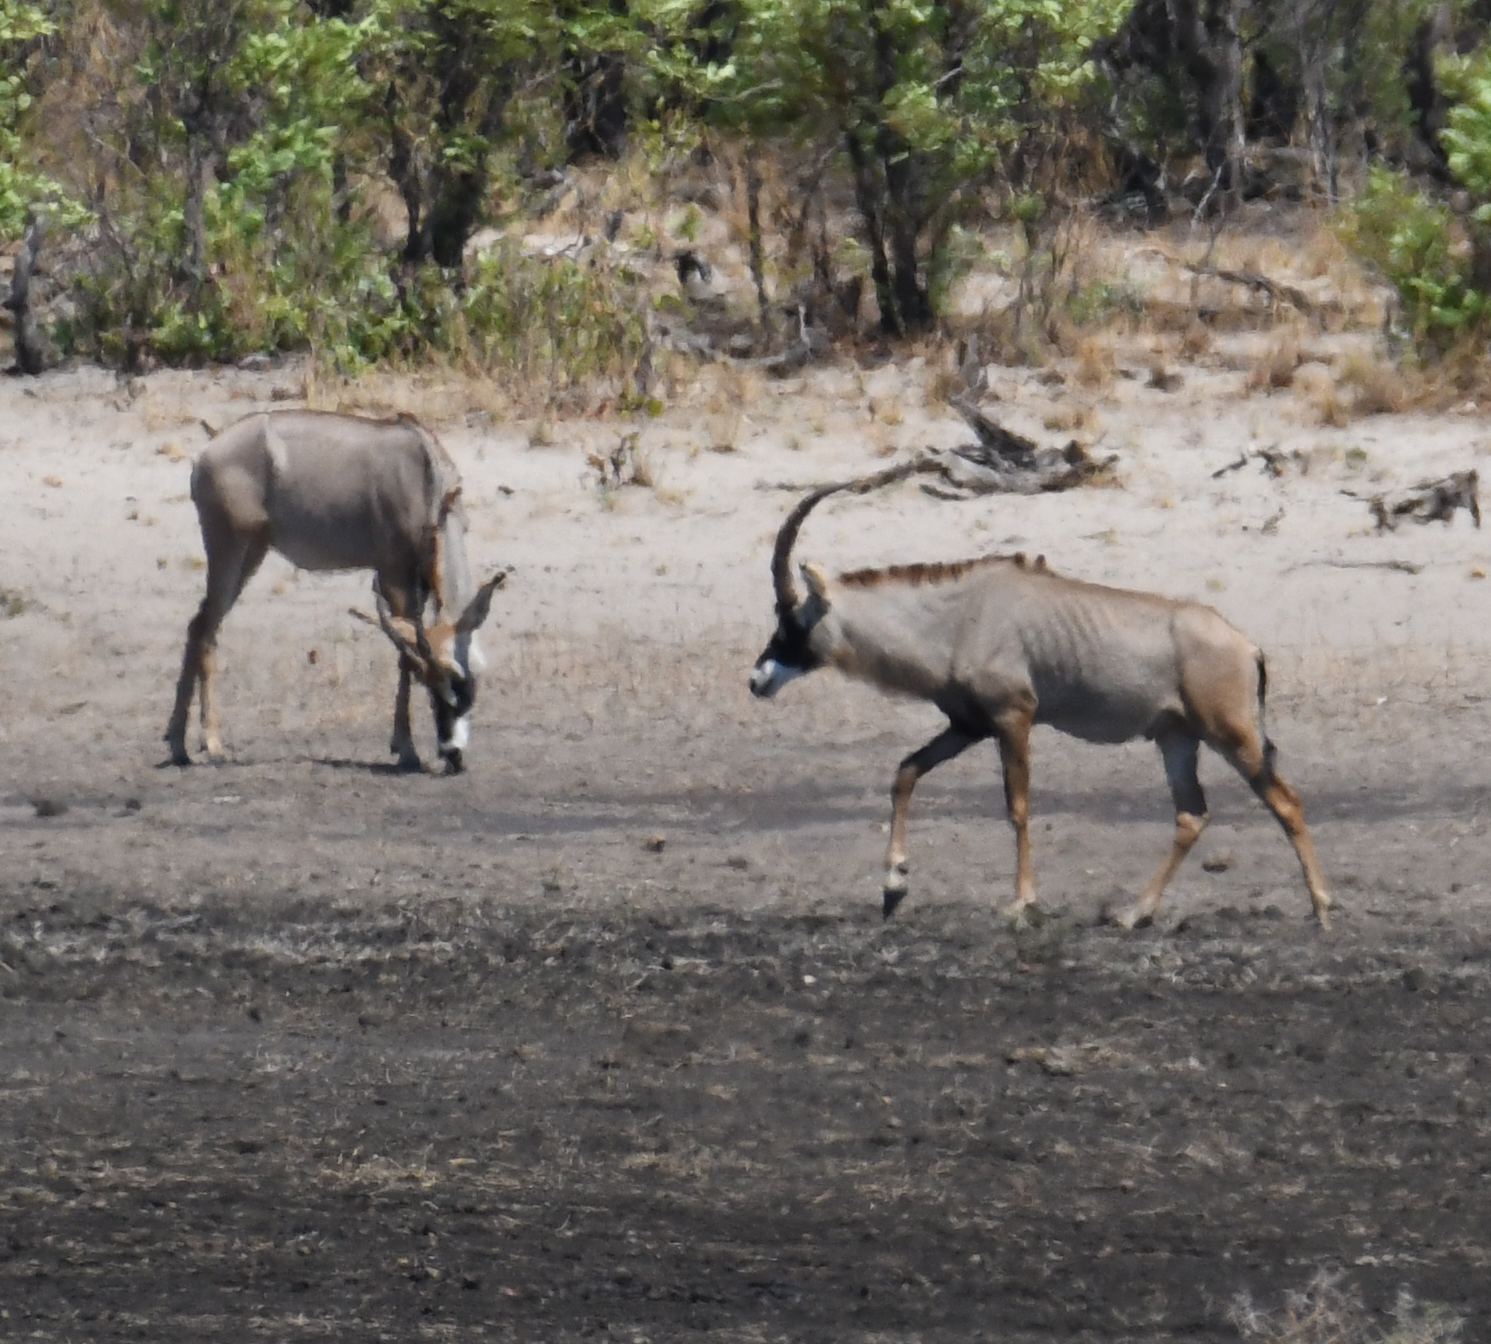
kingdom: Animalia
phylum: Chordata
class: Mammalia
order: Artiodactyla
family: Bovidae
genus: Hippotragus
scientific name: Hippotragus equinus
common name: Roan antelope
